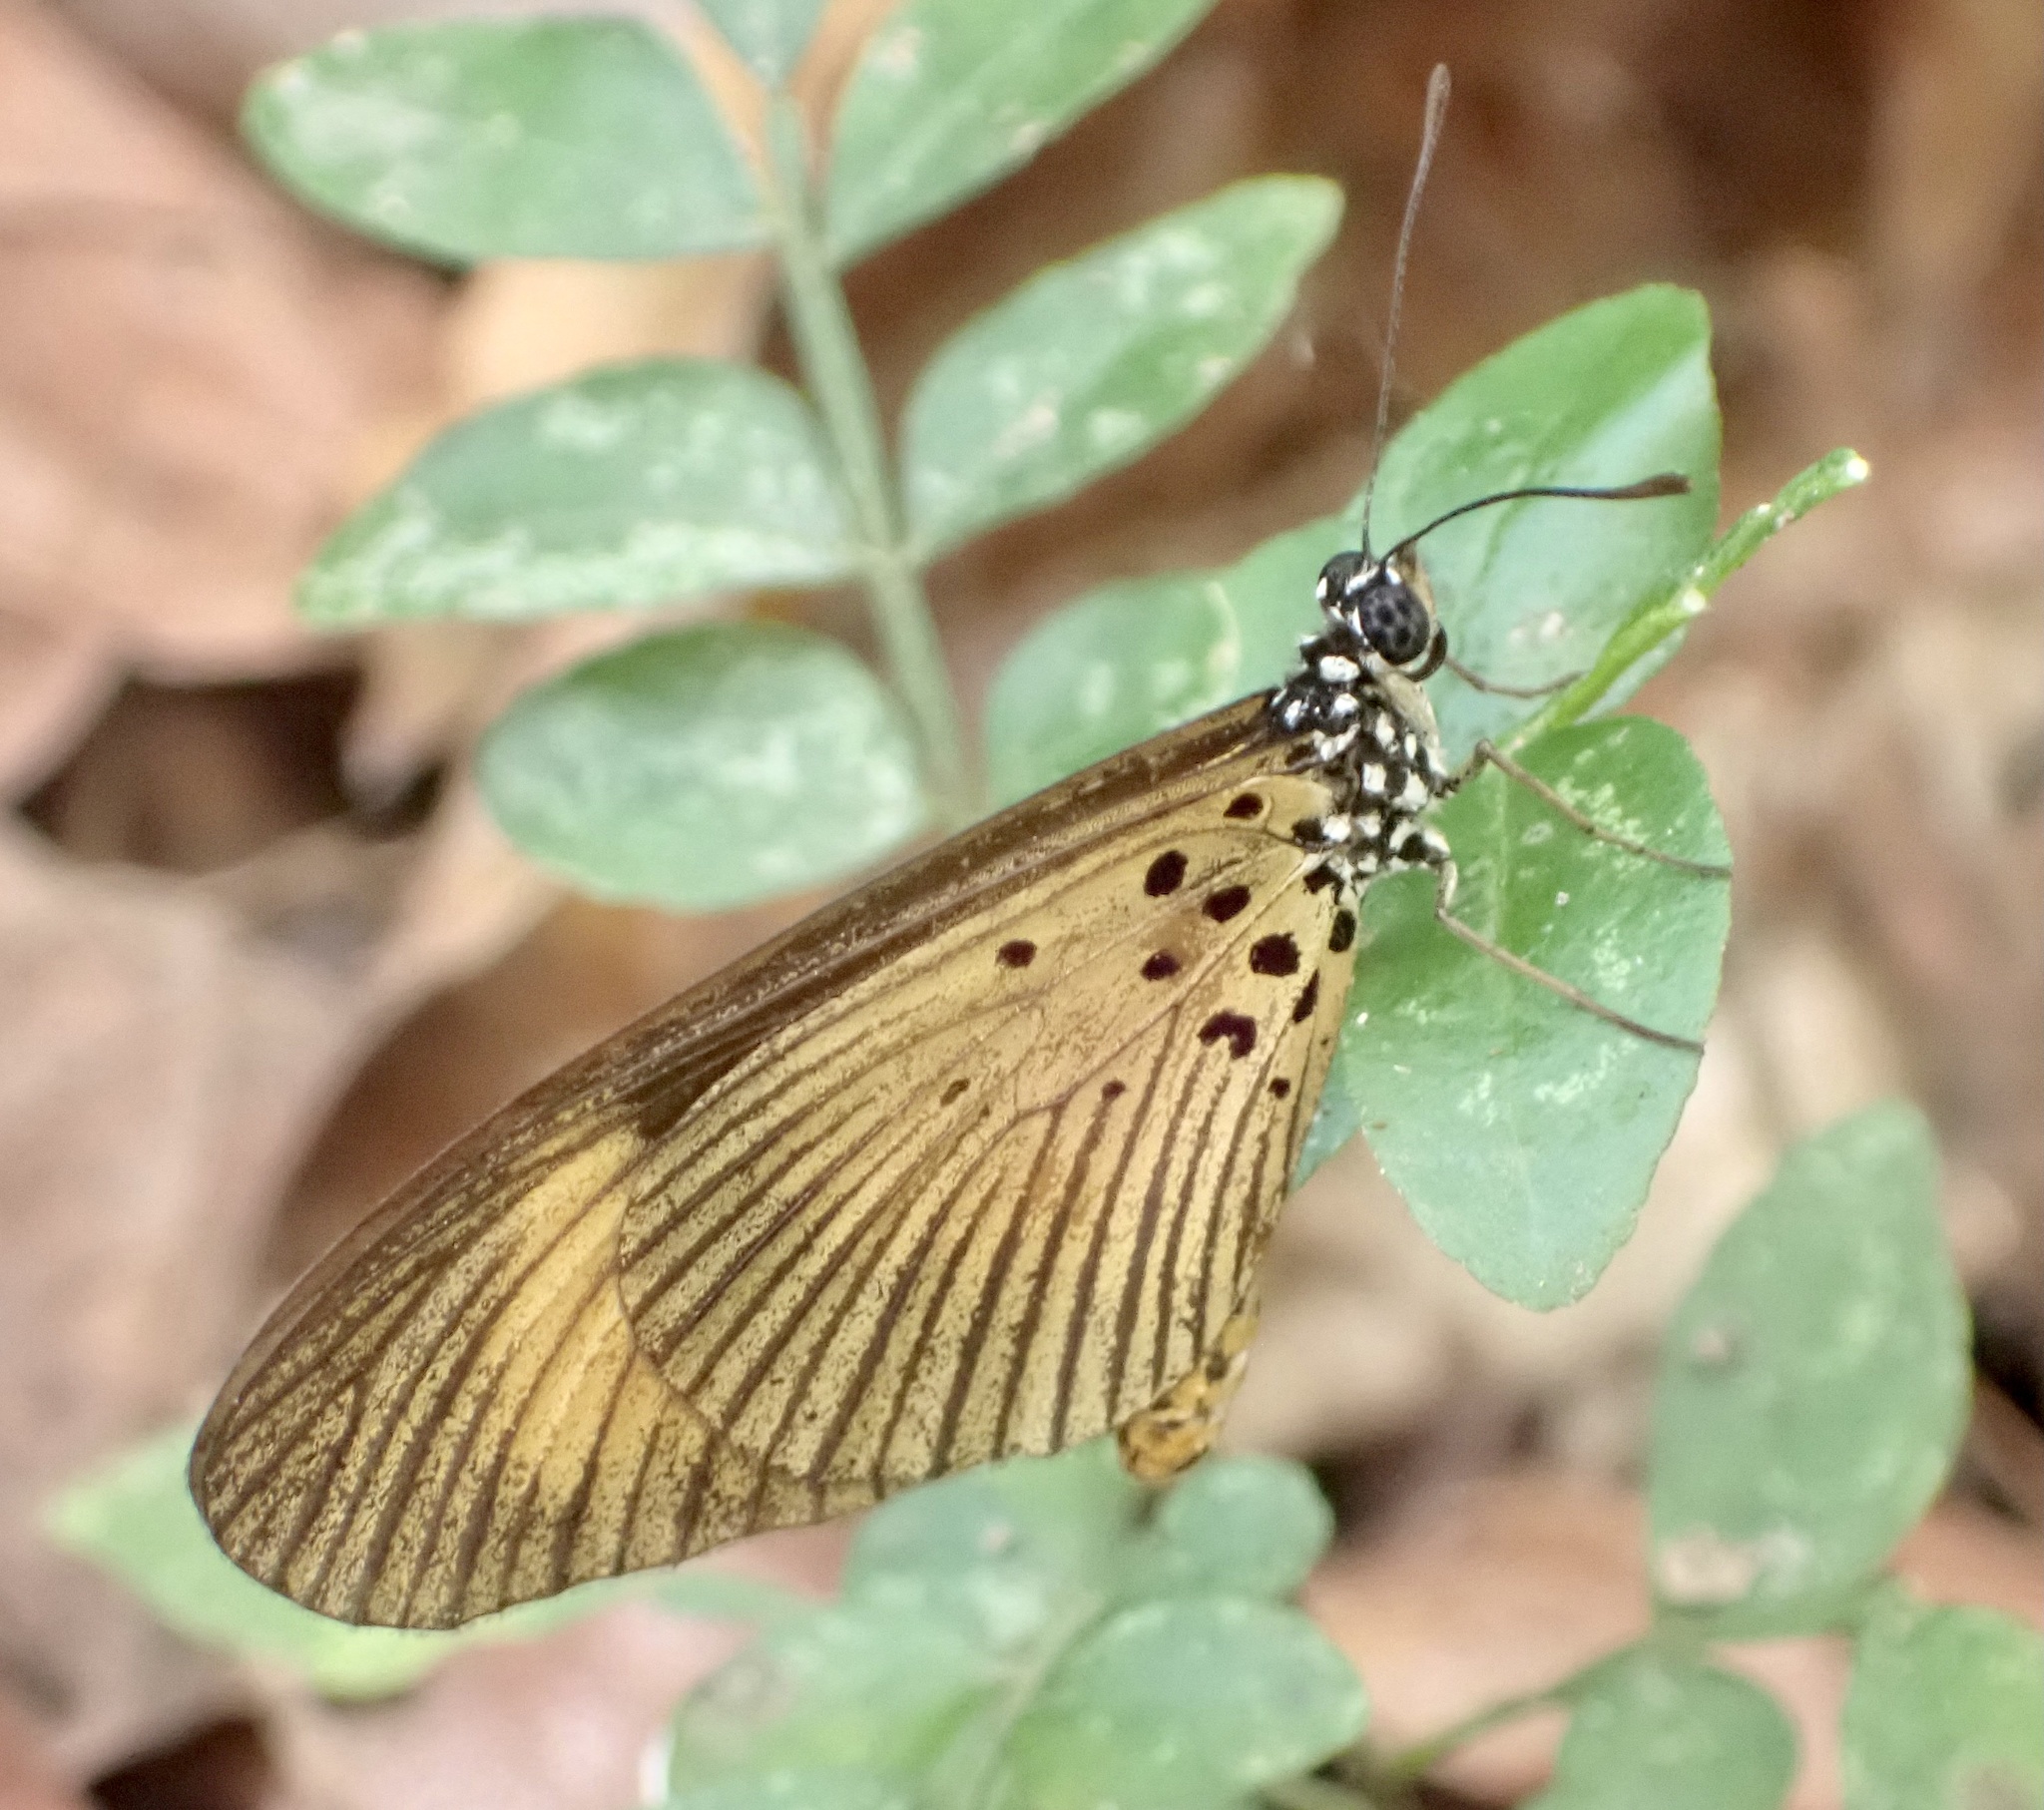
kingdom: Animalia
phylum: Arthropoda
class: Insecta
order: Lepidoptera
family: Nymphalidae
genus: Acraea
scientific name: Acraea Telchinia alciope
